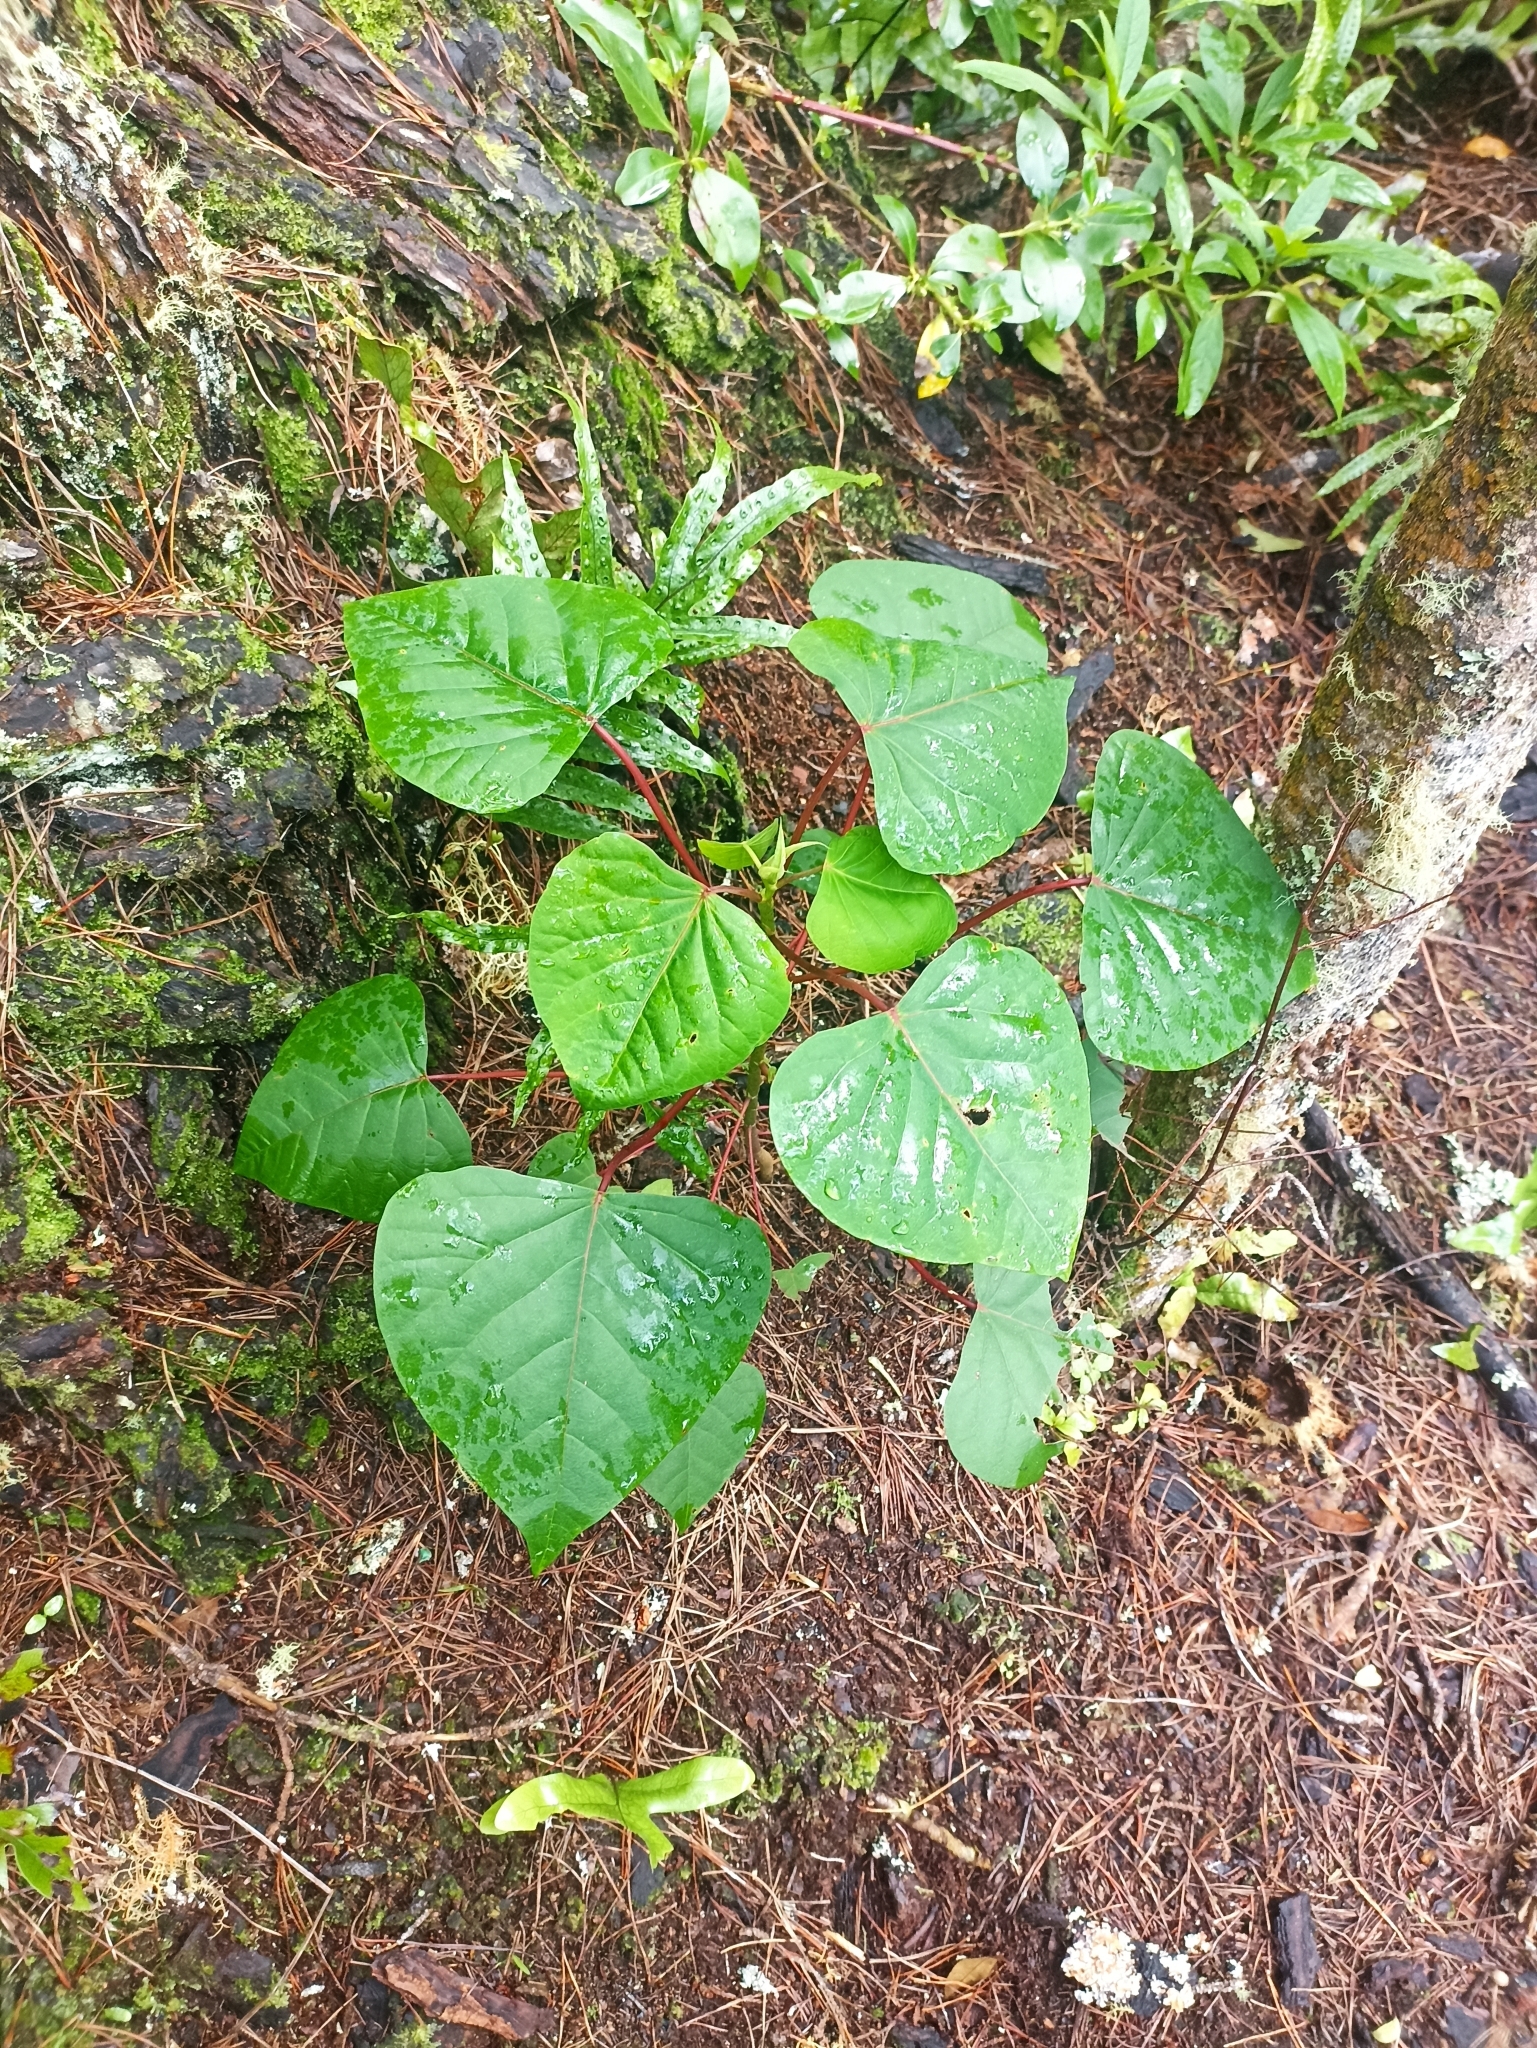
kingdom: Plantae
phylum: Tracheophyta
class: Magnoliopsida
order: Malpighiales
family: Euphorbiaceae
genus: Homalanthus
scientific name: Homalanthus populifolius
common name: Queensland poplar
